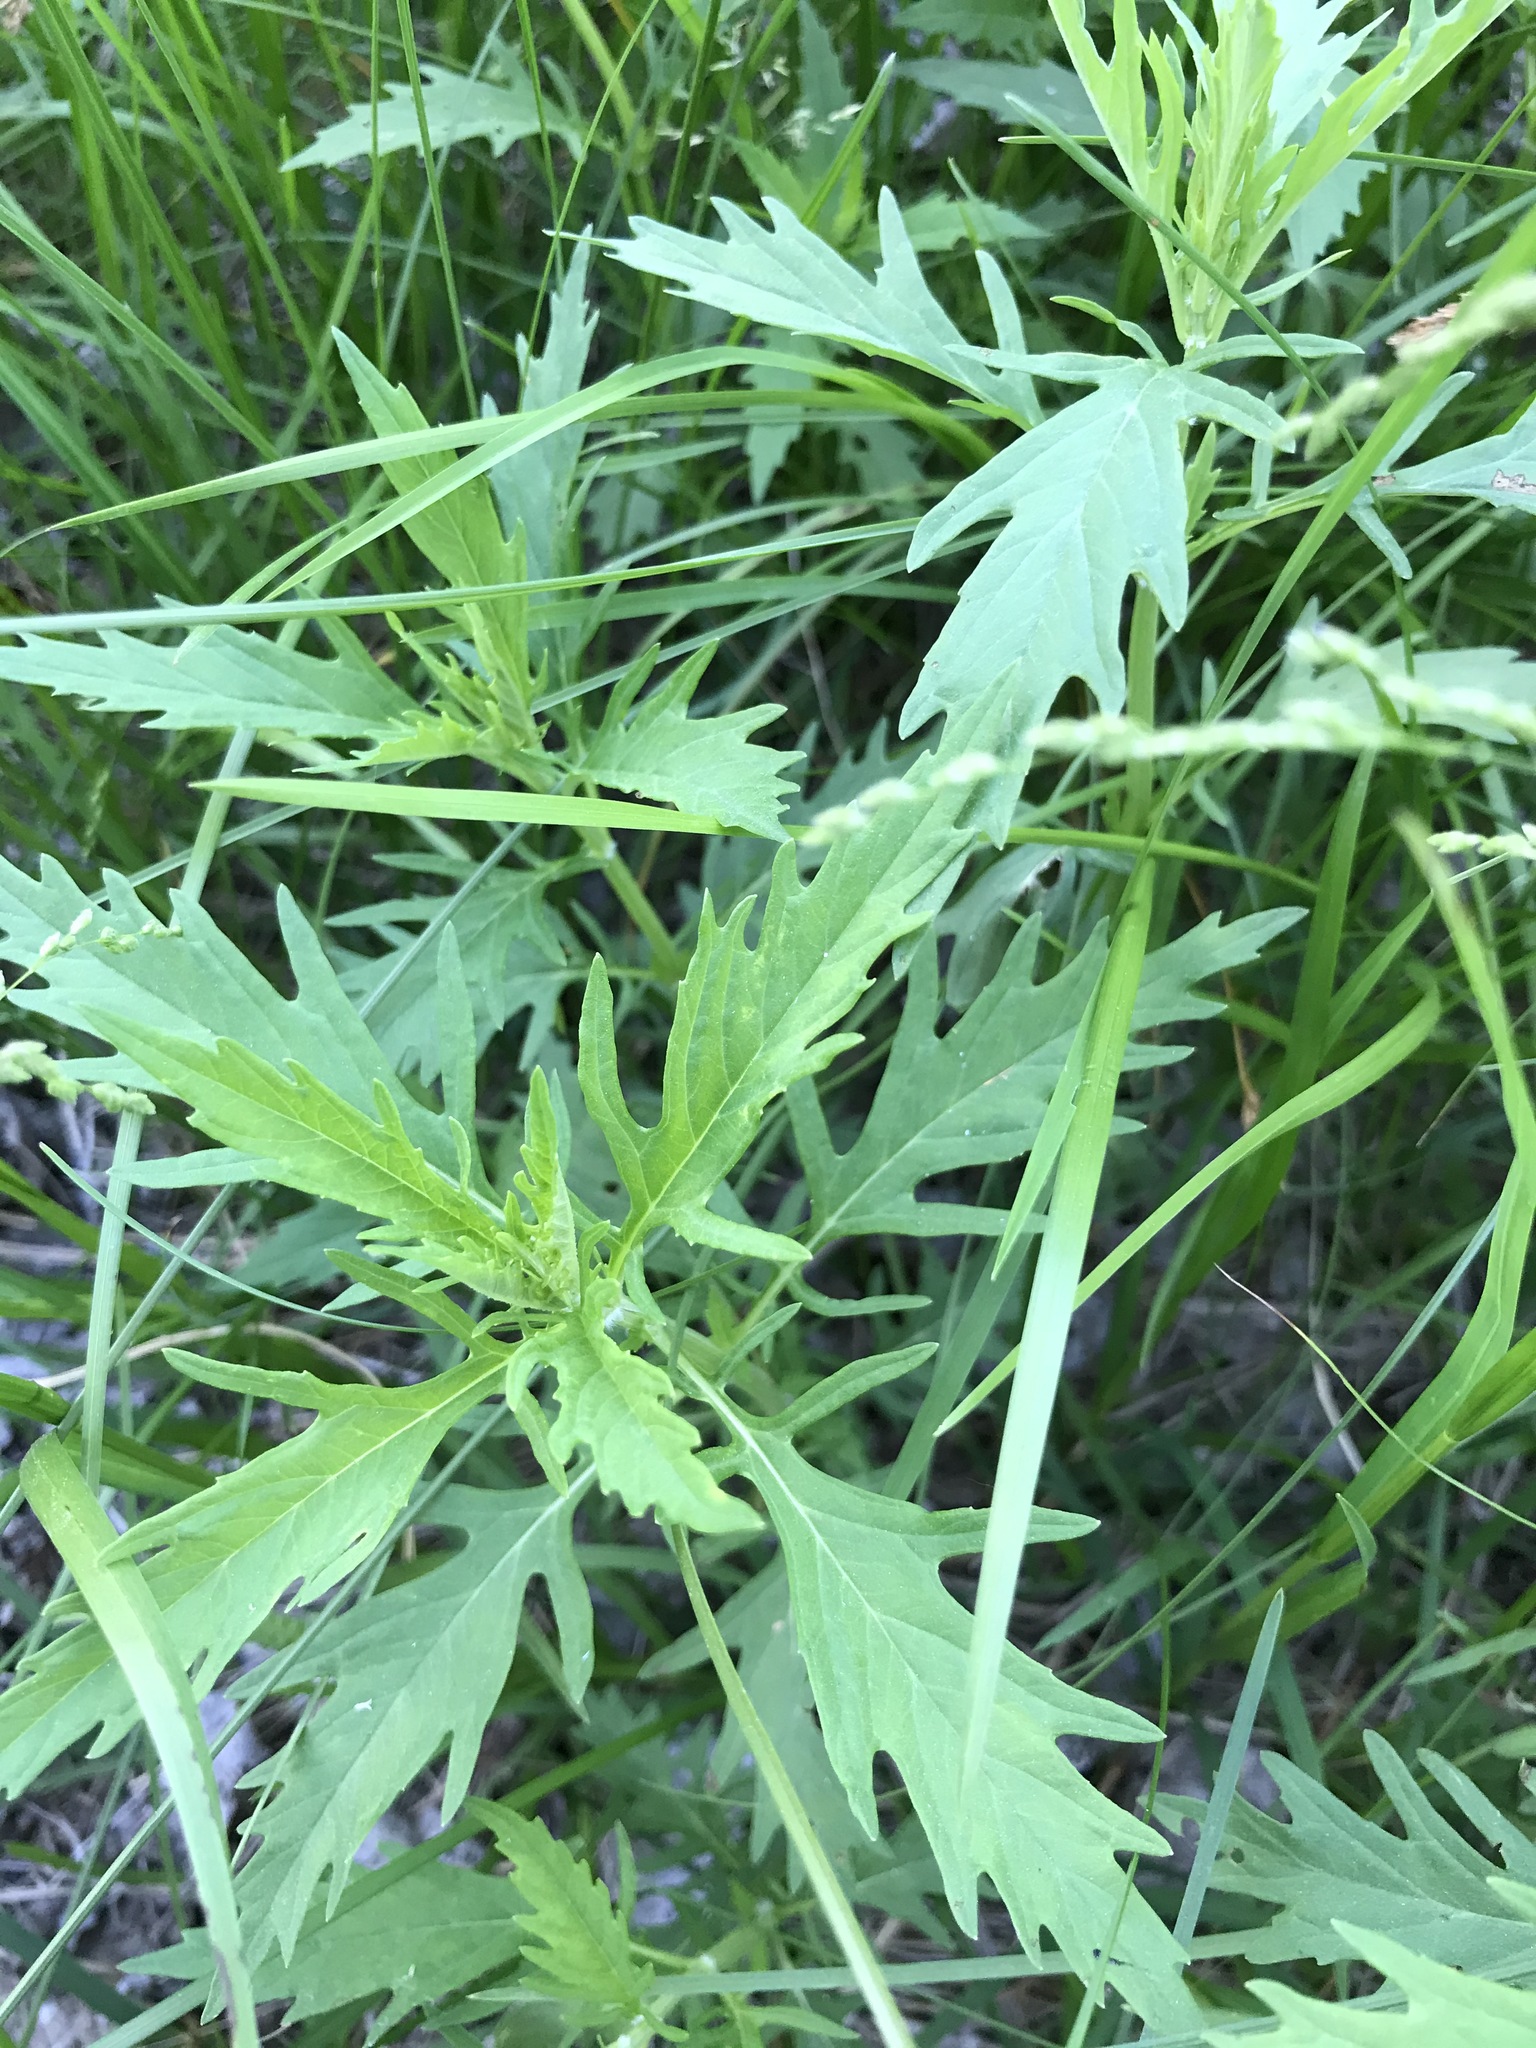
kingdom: Plantae
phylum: Tracheophyta
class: Magnoliopsida
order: Lamiales
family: Lamiaceae
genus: Lycopus
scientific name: Lycopus americanus
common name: American bugleweed
